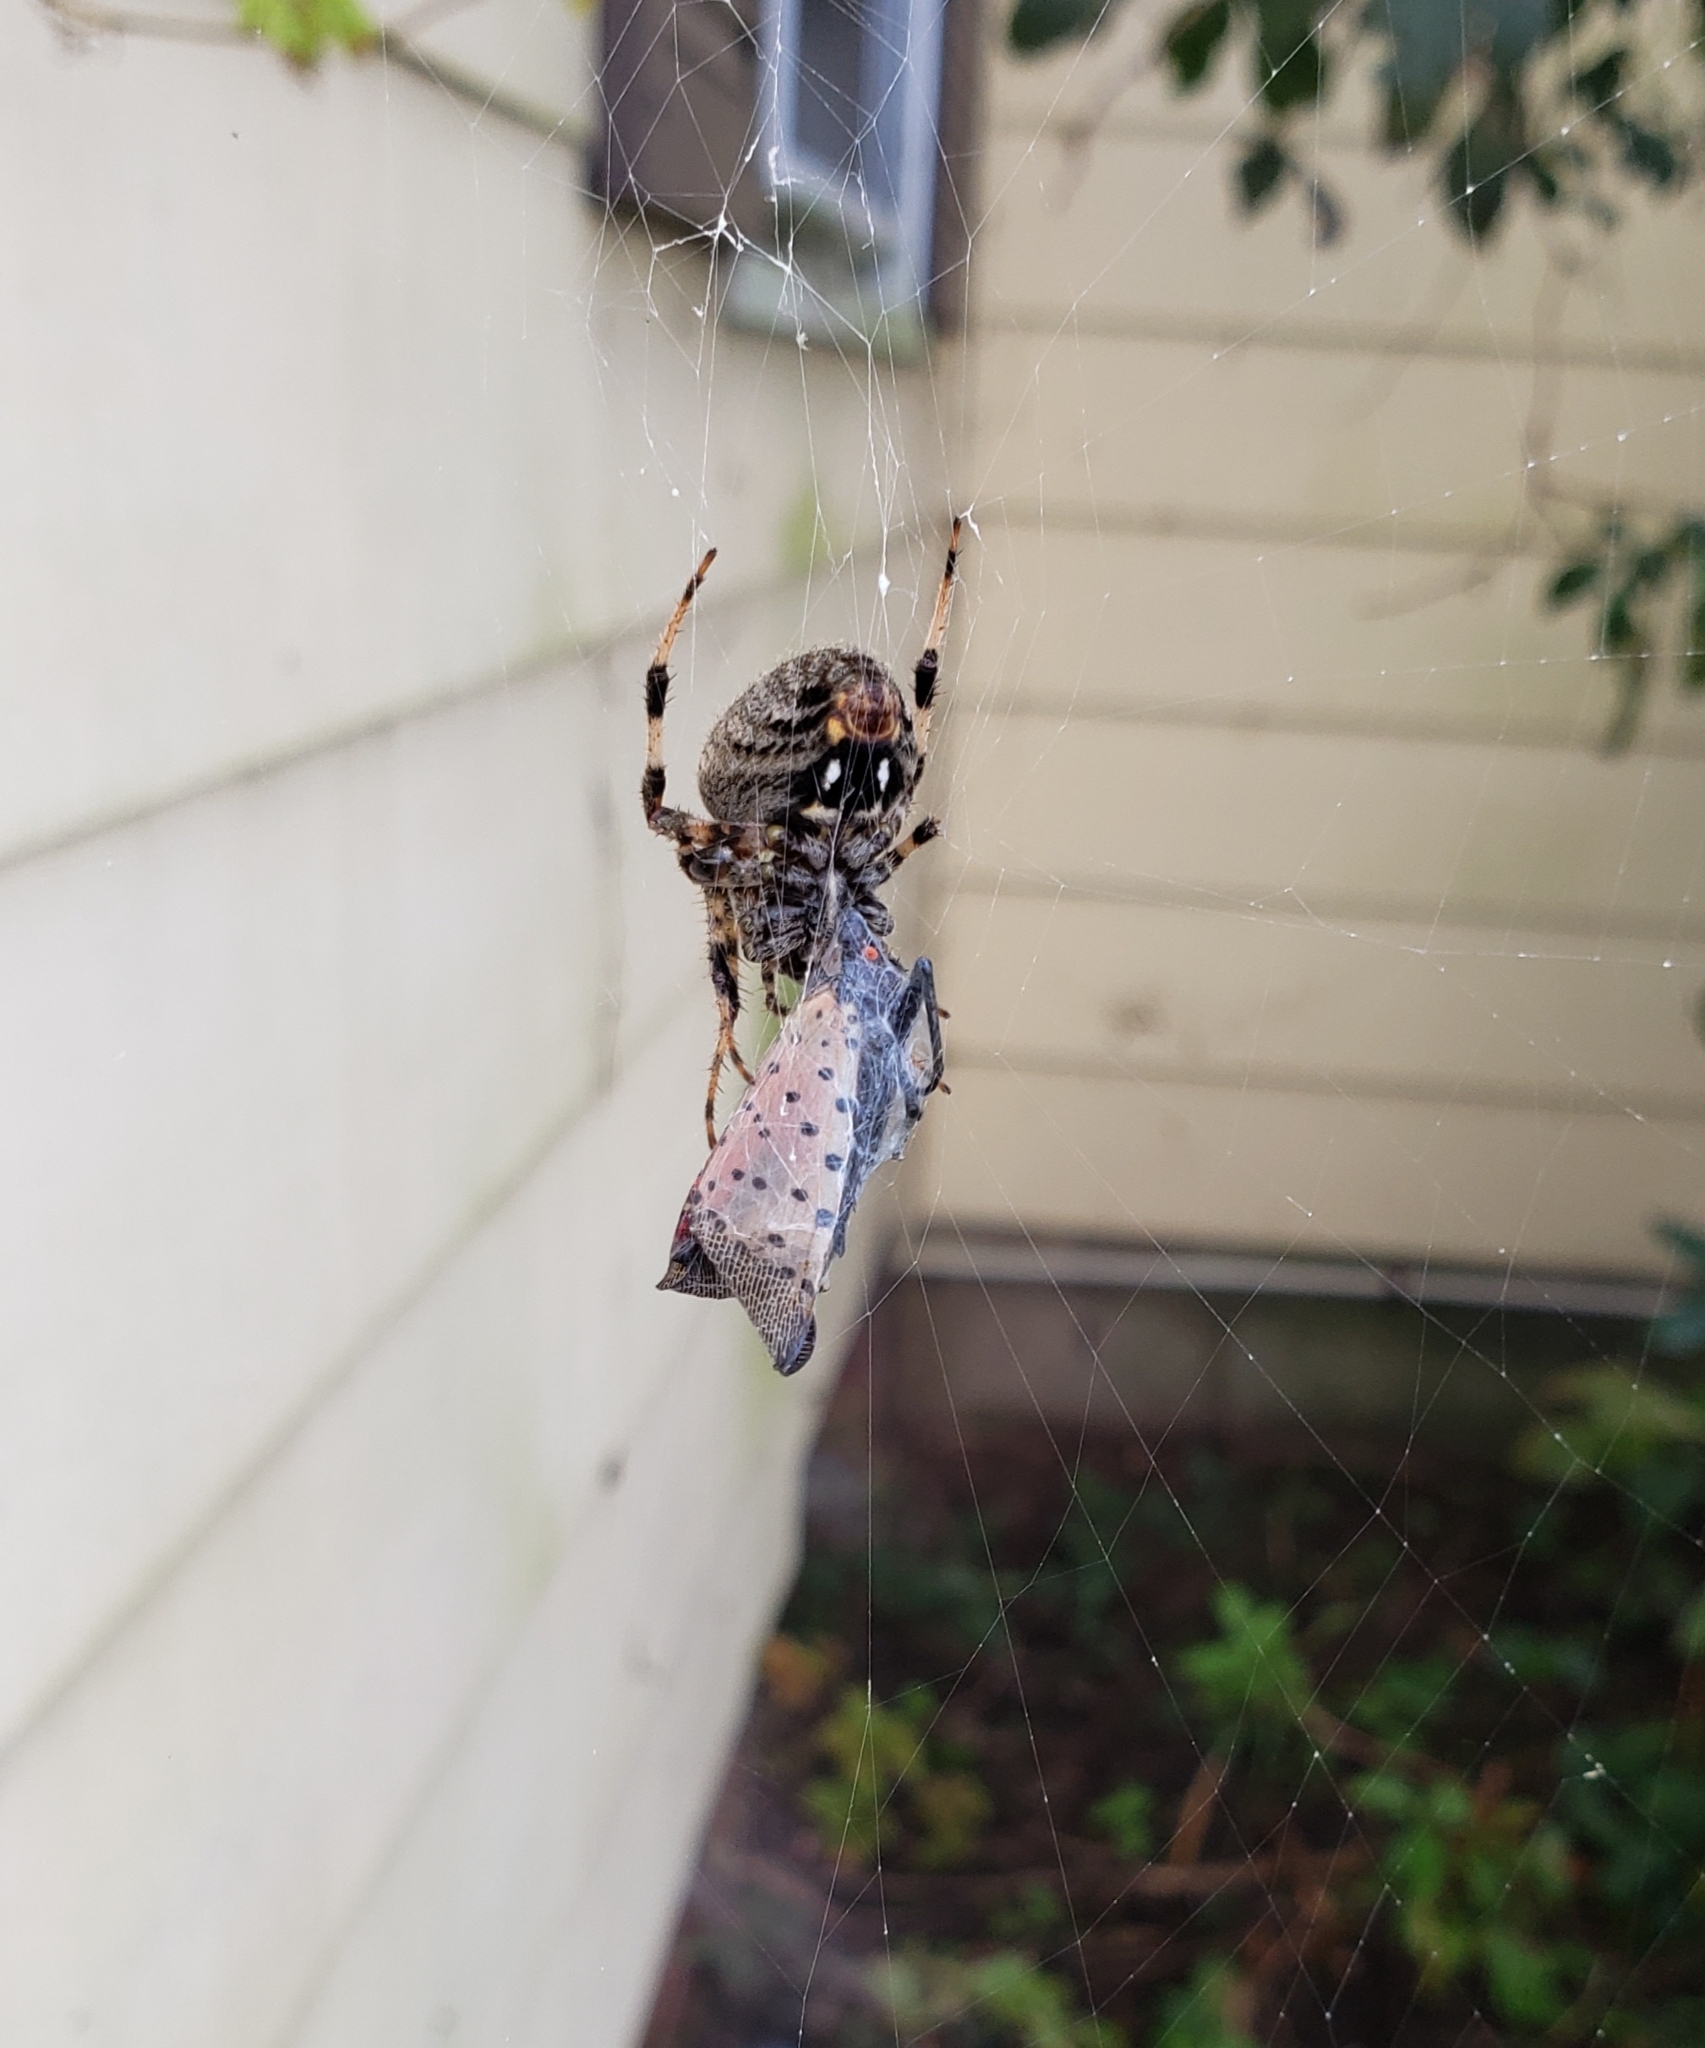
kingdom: Animalia
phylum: Arthropoda
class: Insecta
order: Hemiptera
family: Fulgoridae
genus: Lycorma
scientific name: Lycorma delicatula
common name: Spotted lanternfly
